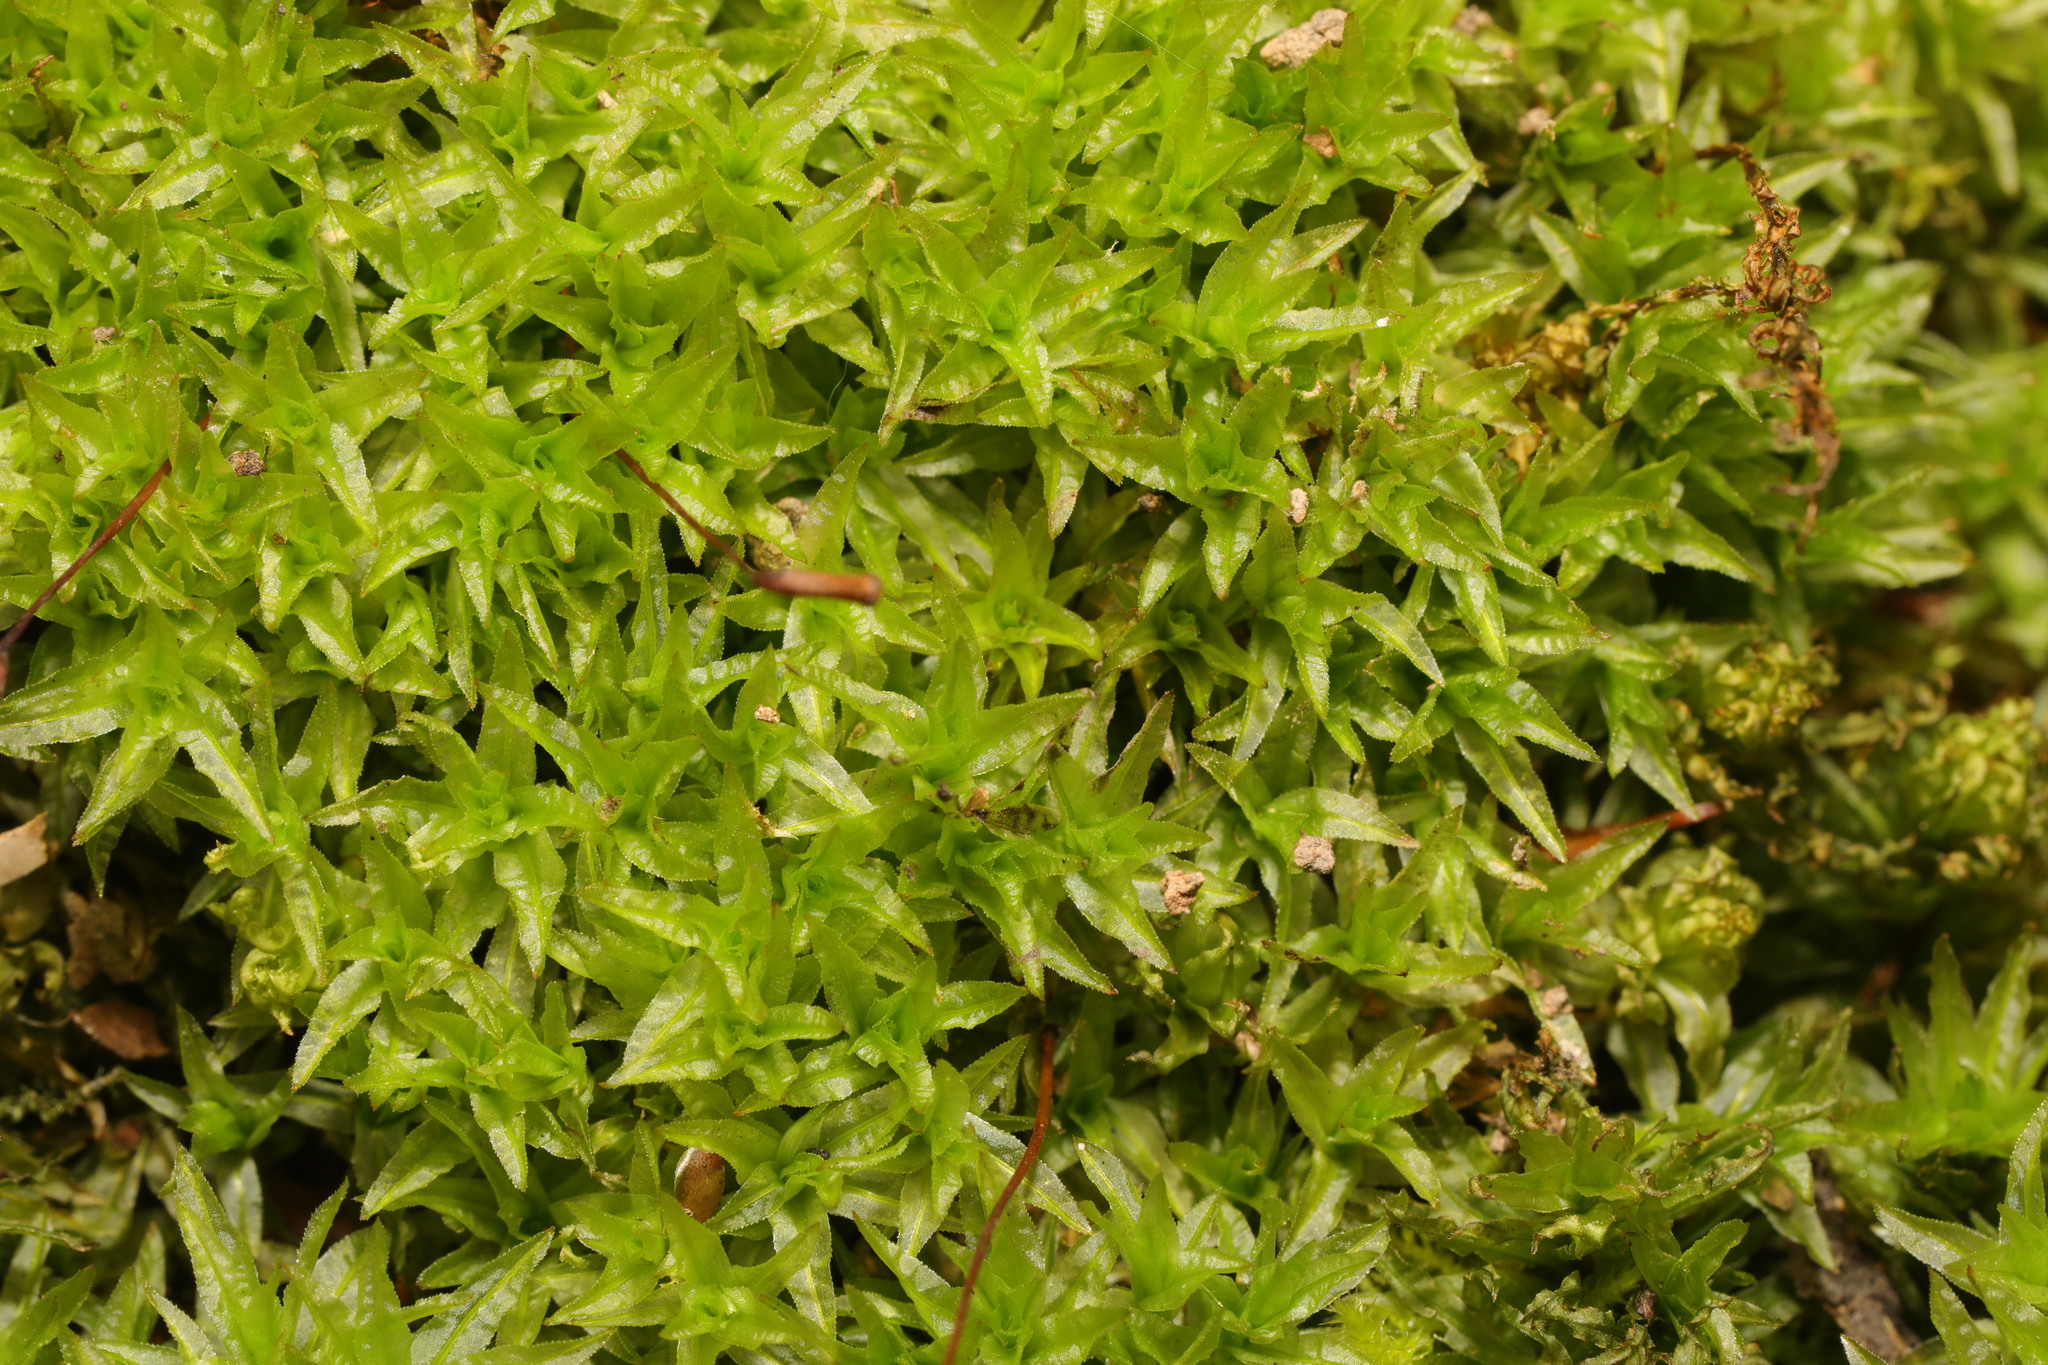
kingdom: Plantae
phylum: Bryophyta
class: Polytrichopsida
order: Polytrichales
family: Polytrichaceae
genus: Atrichum
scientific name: Atrichum undulatum
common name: Common smoothcap
